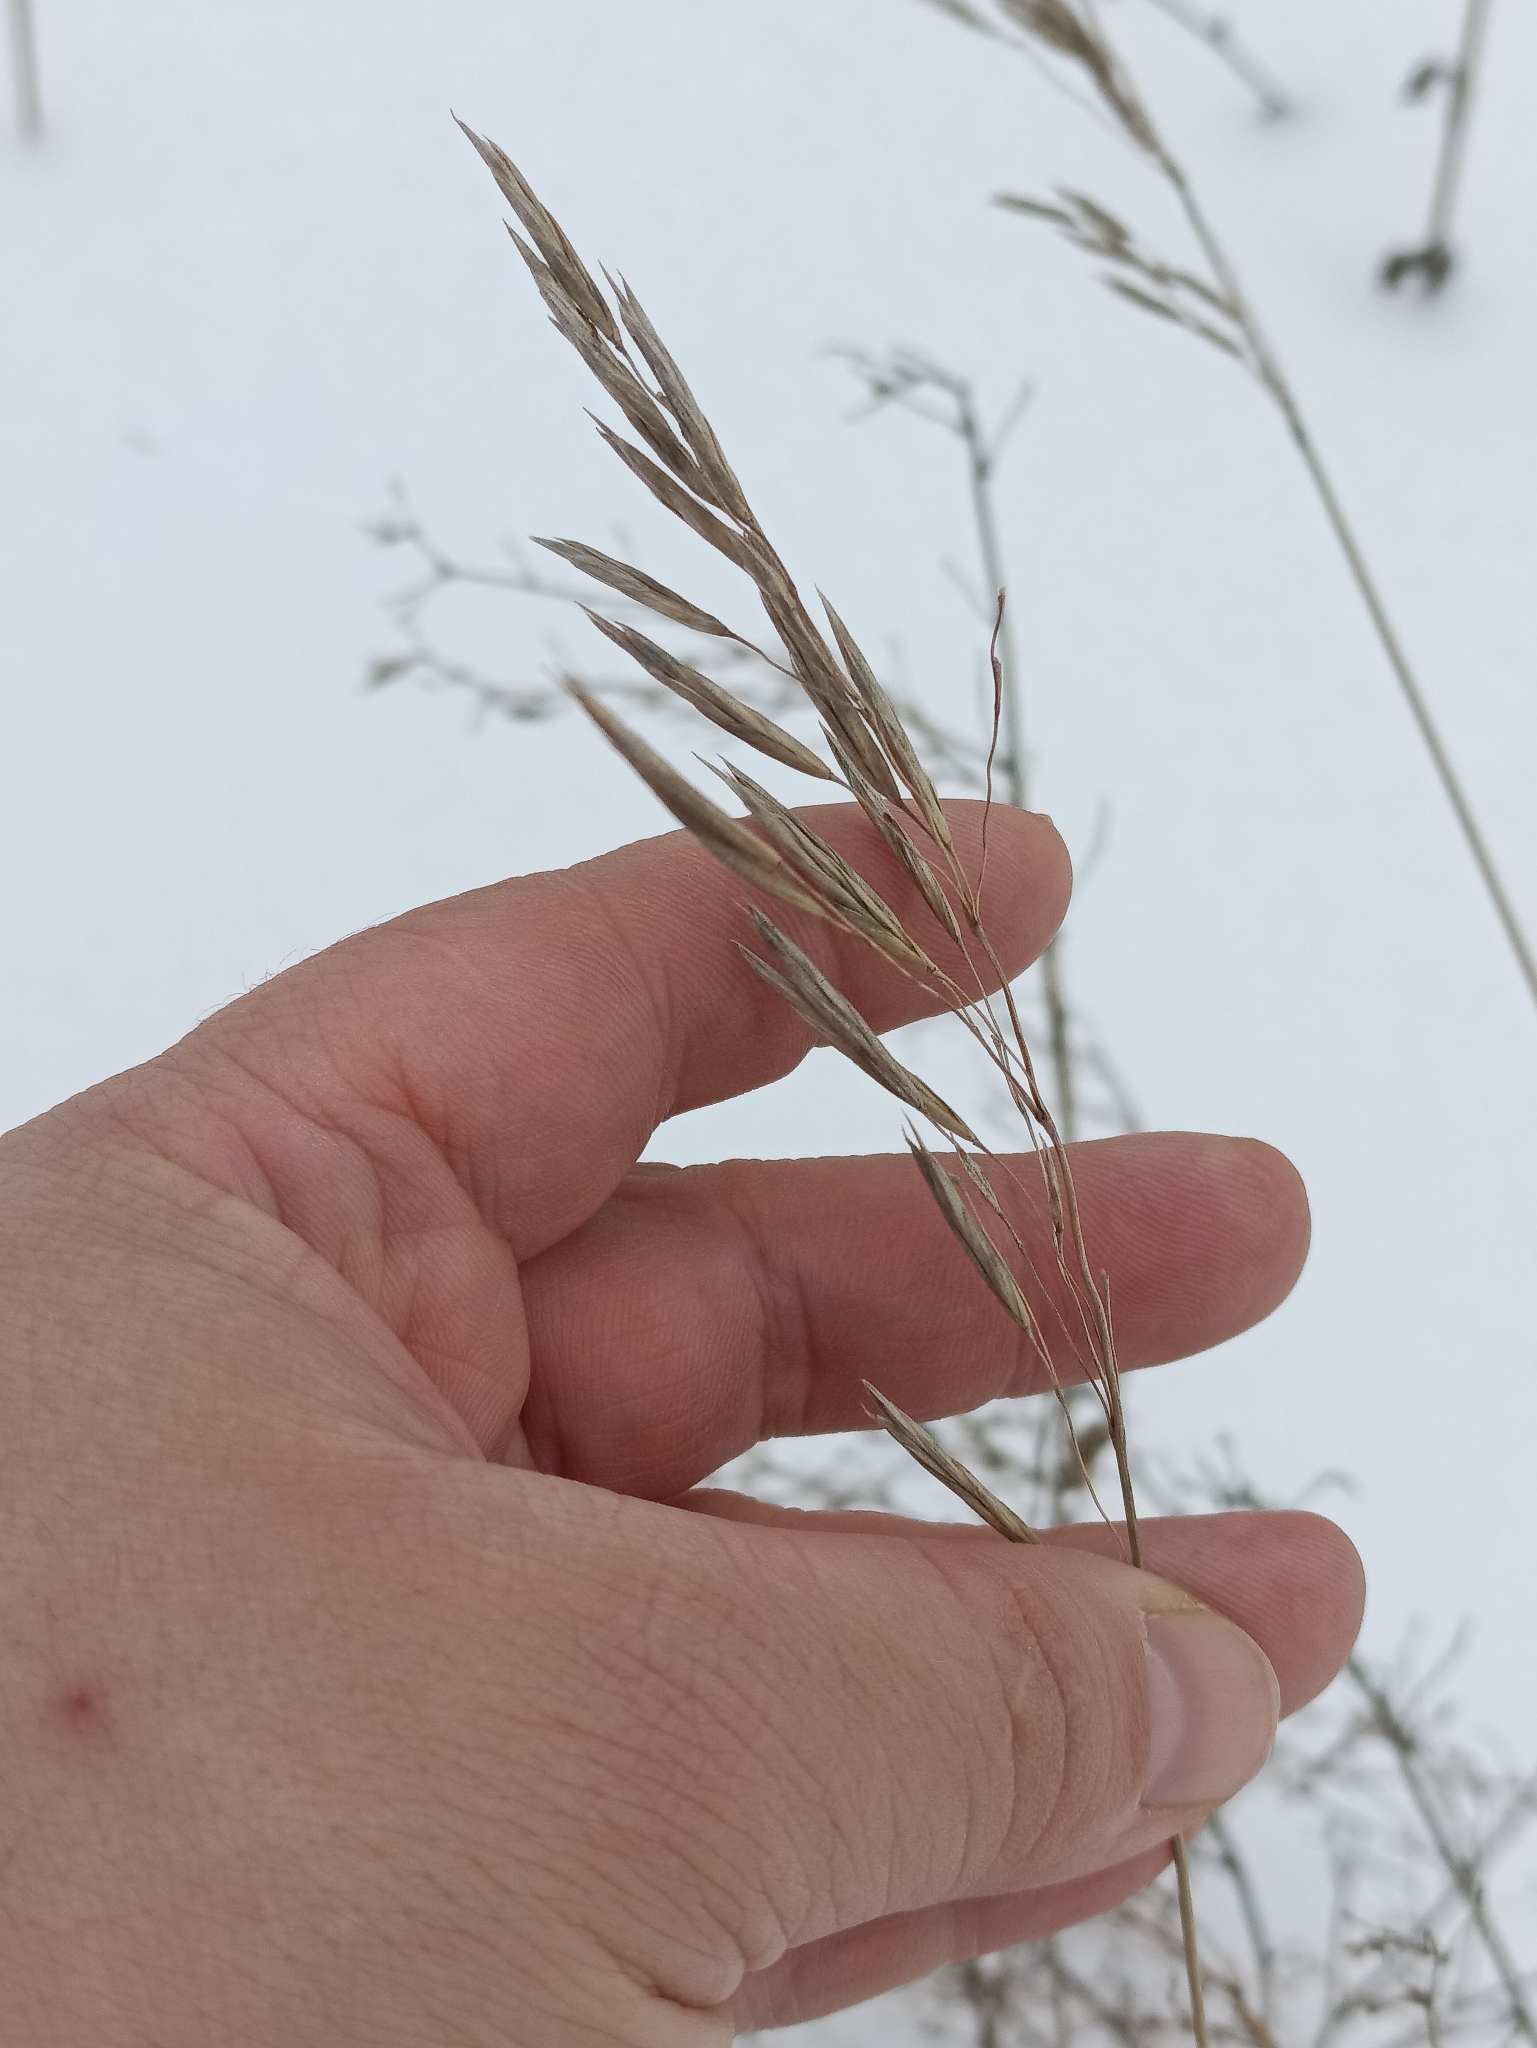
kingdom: Plantae
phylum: Tracheophyta
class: Liliopsida
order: Poales
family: Poaceae
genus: Bromus
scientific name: Bromus inermis
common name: Smooth brome
